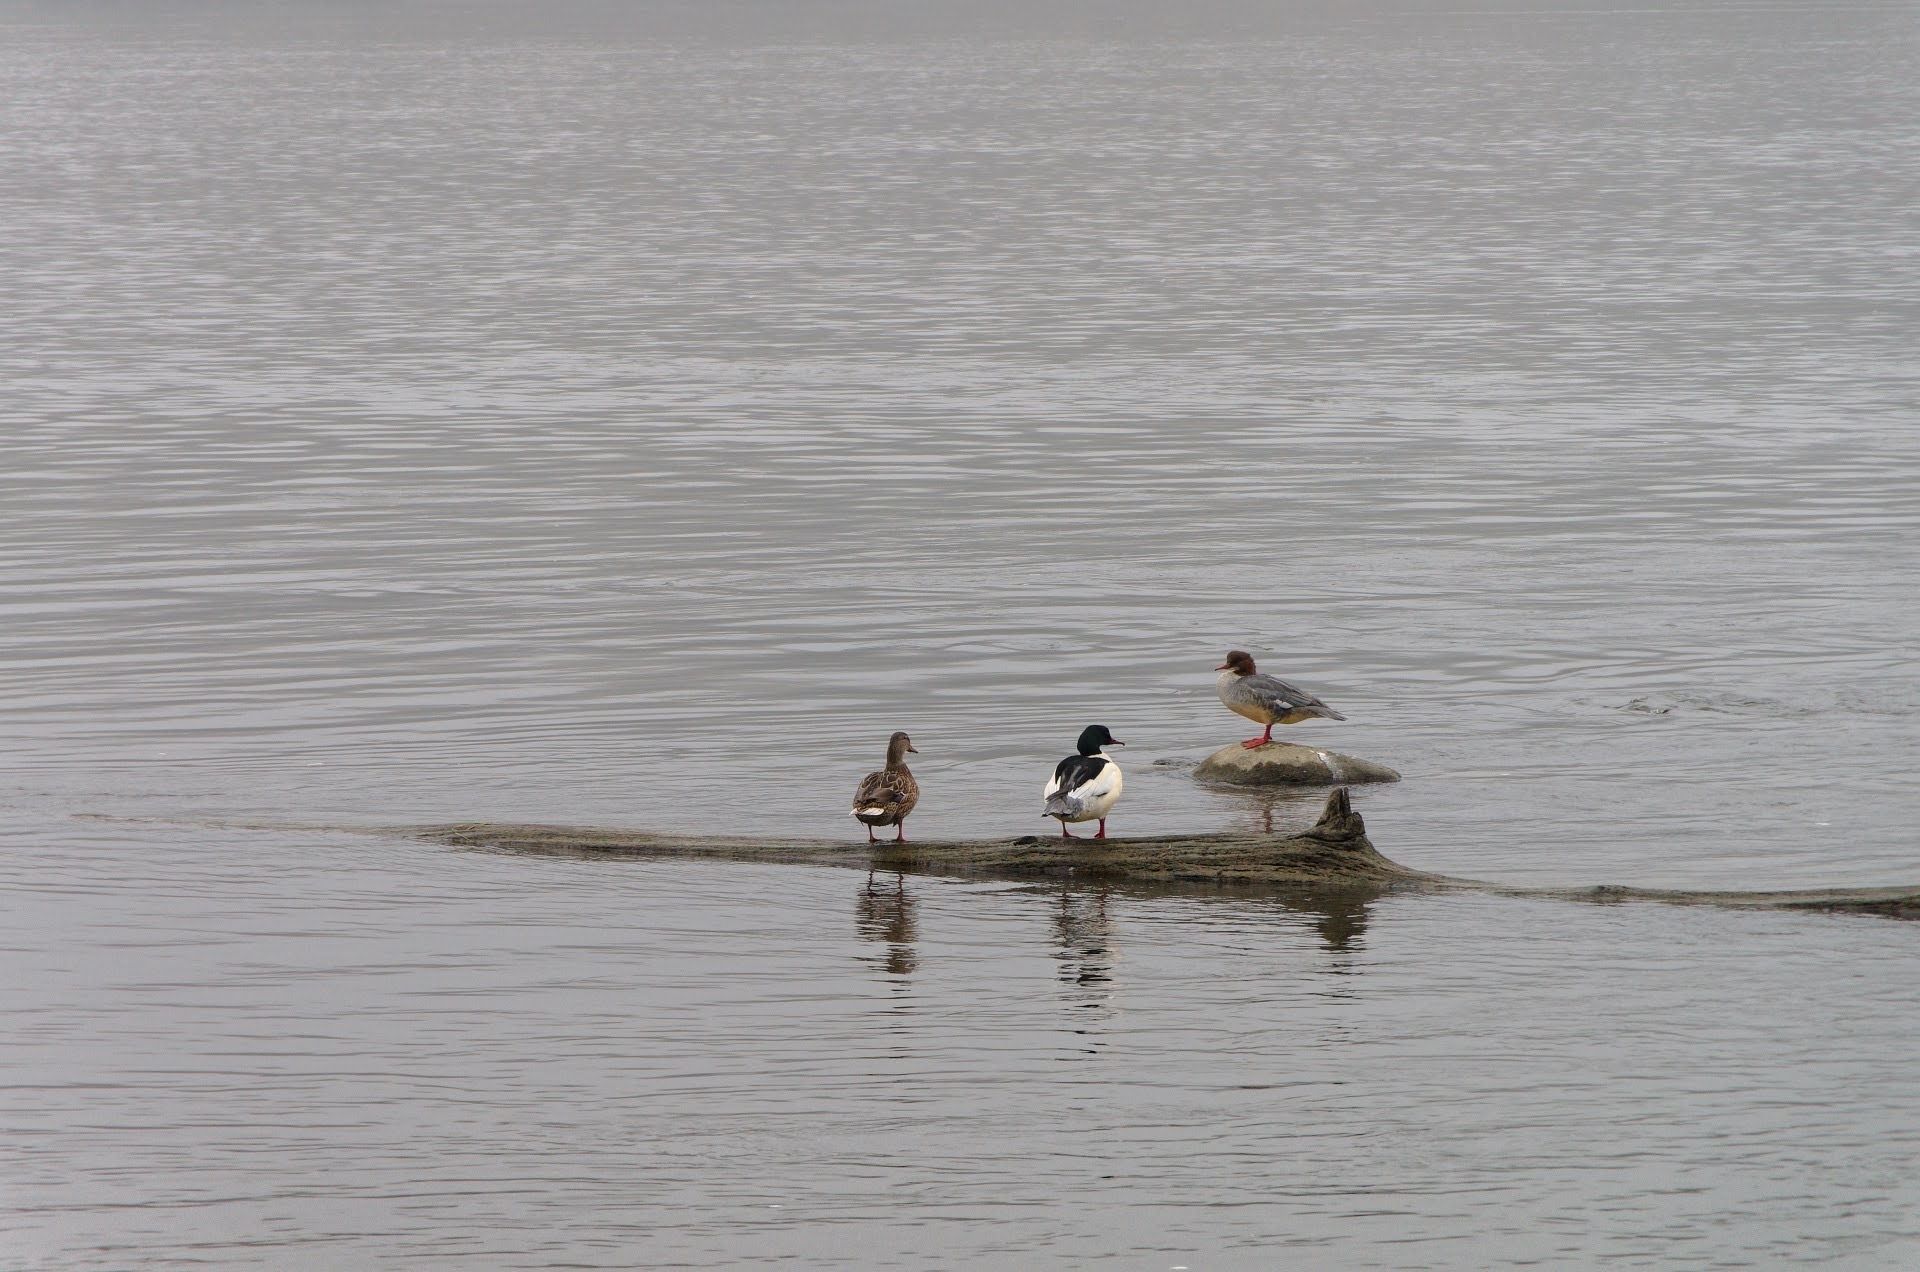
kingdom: Animalia
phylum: Chordata
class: Aves
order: Anseriformes
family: Anatidae
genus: Mergus
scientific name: Mergus merganser
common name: Common merganser
